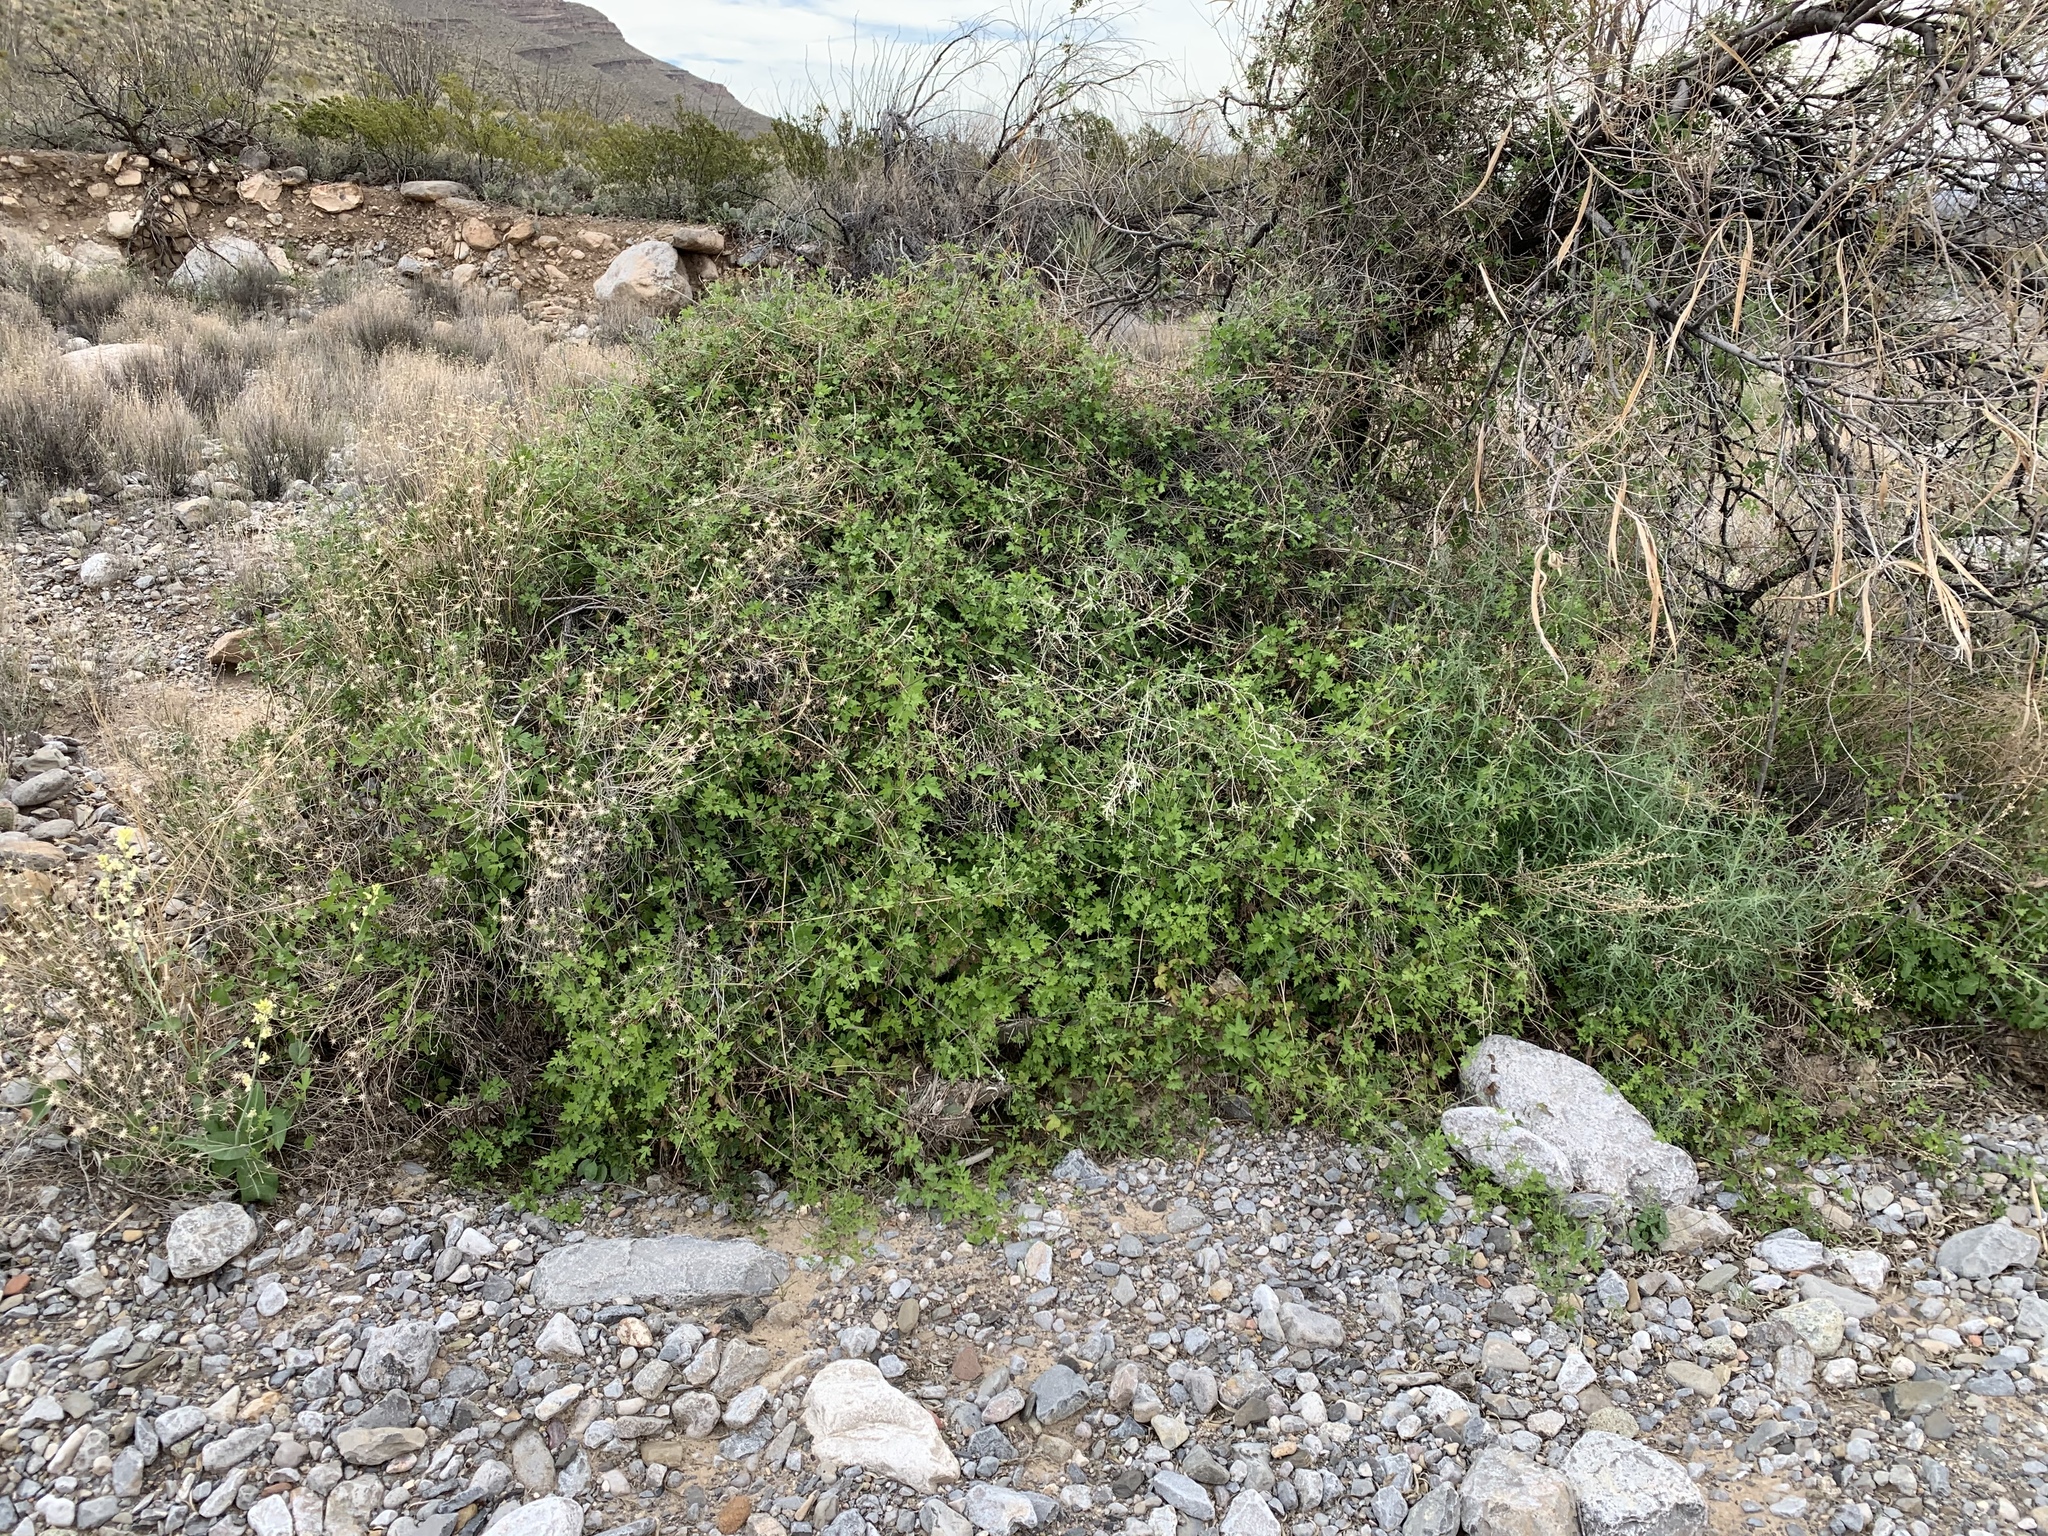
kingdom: Plantae
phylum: Tracheophyta
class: Magnoliopsida
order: Ranunculales
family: Ranunculaceae
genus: Clematis
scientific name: Clematis drummondii
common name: Texas virgin's bower
